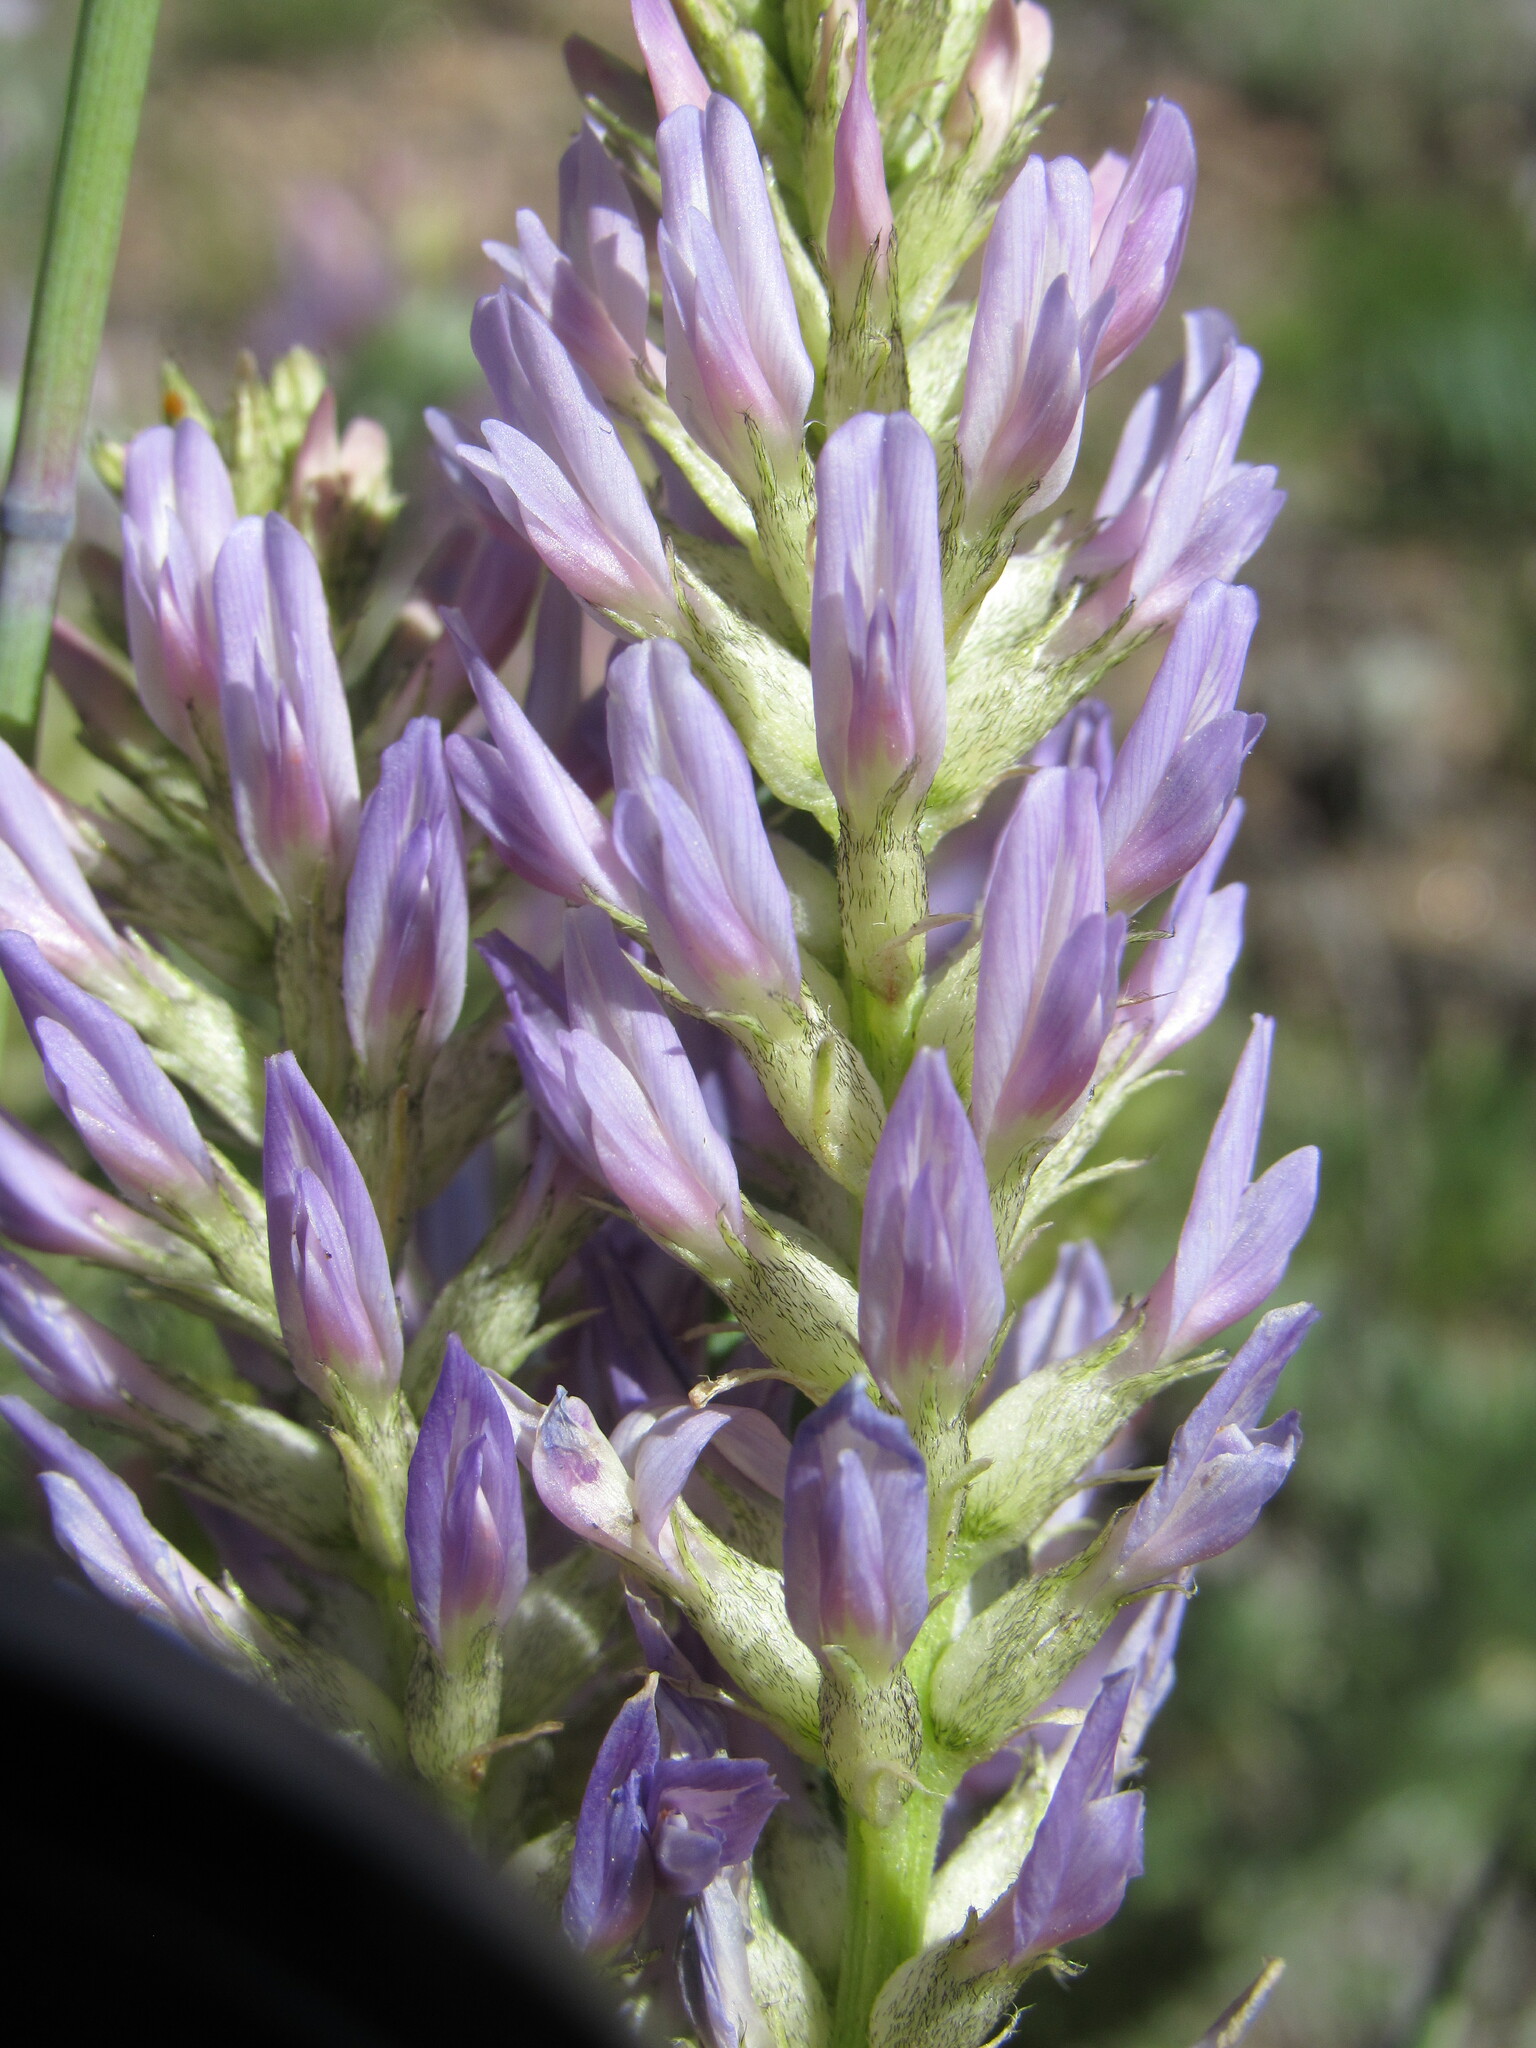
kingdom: Plantae
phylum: Tracheophyta
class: Magnoliopsida
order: Fabales
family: Fabaceae
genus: Astragalus
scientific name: Astragalus laxmannii
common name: Laxmann's milk-vetch
